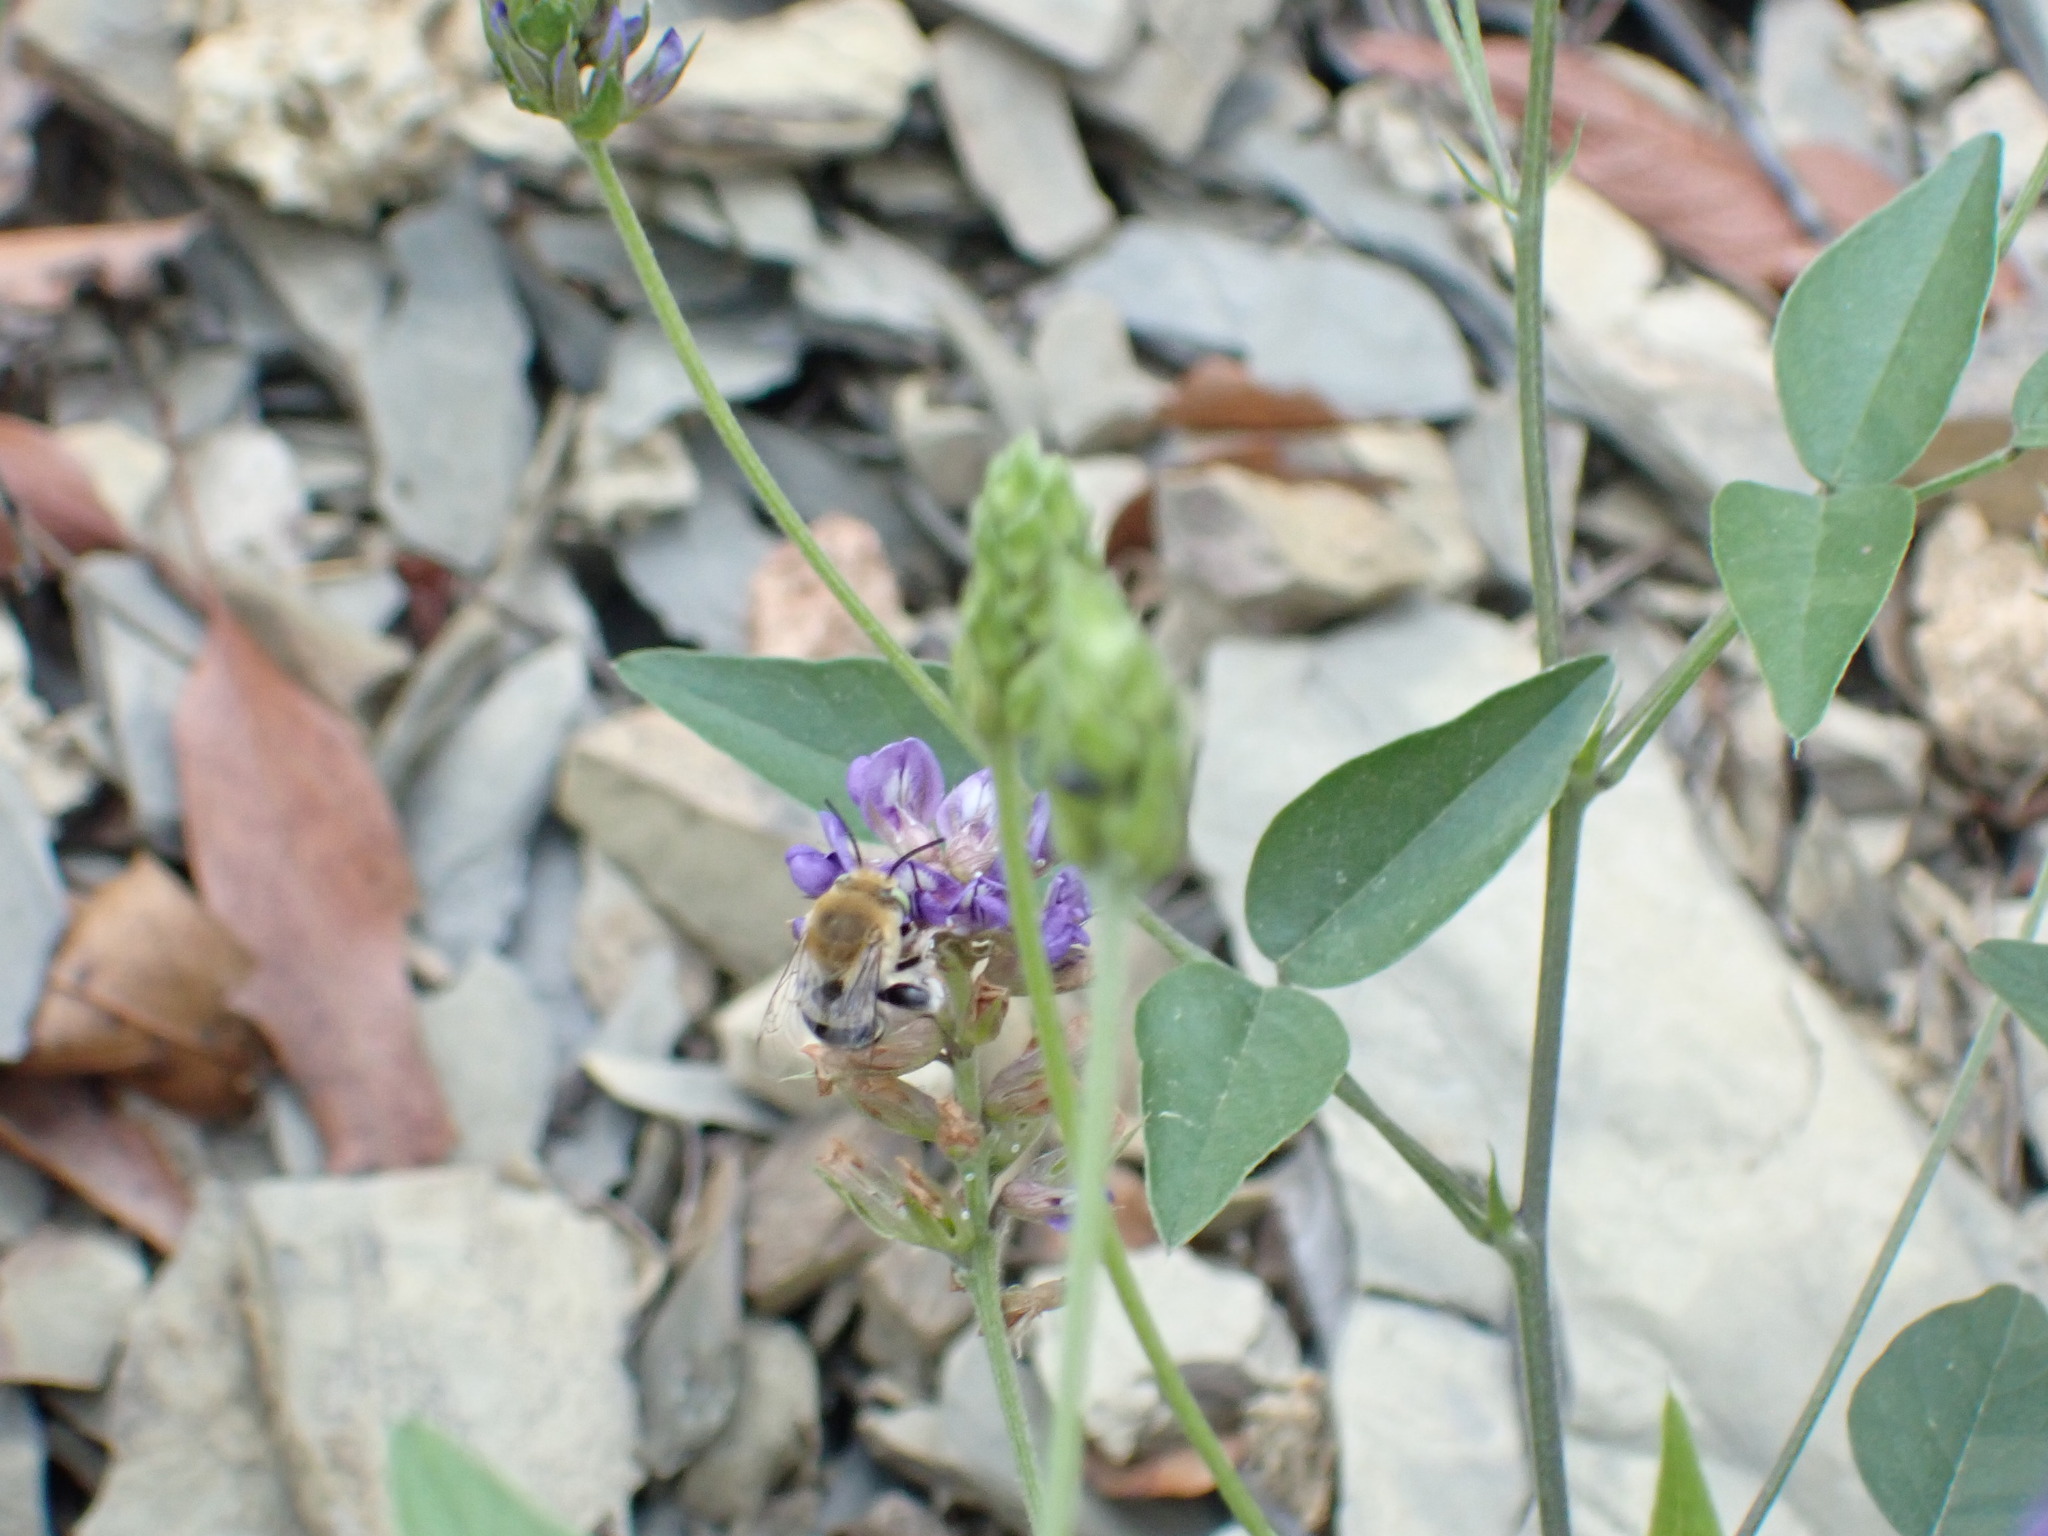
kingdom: Animalia
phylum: Arthropoda
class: Insecta
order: Hymenoptera
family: Apidae
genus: Anthophora
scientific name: Anthophora californica
